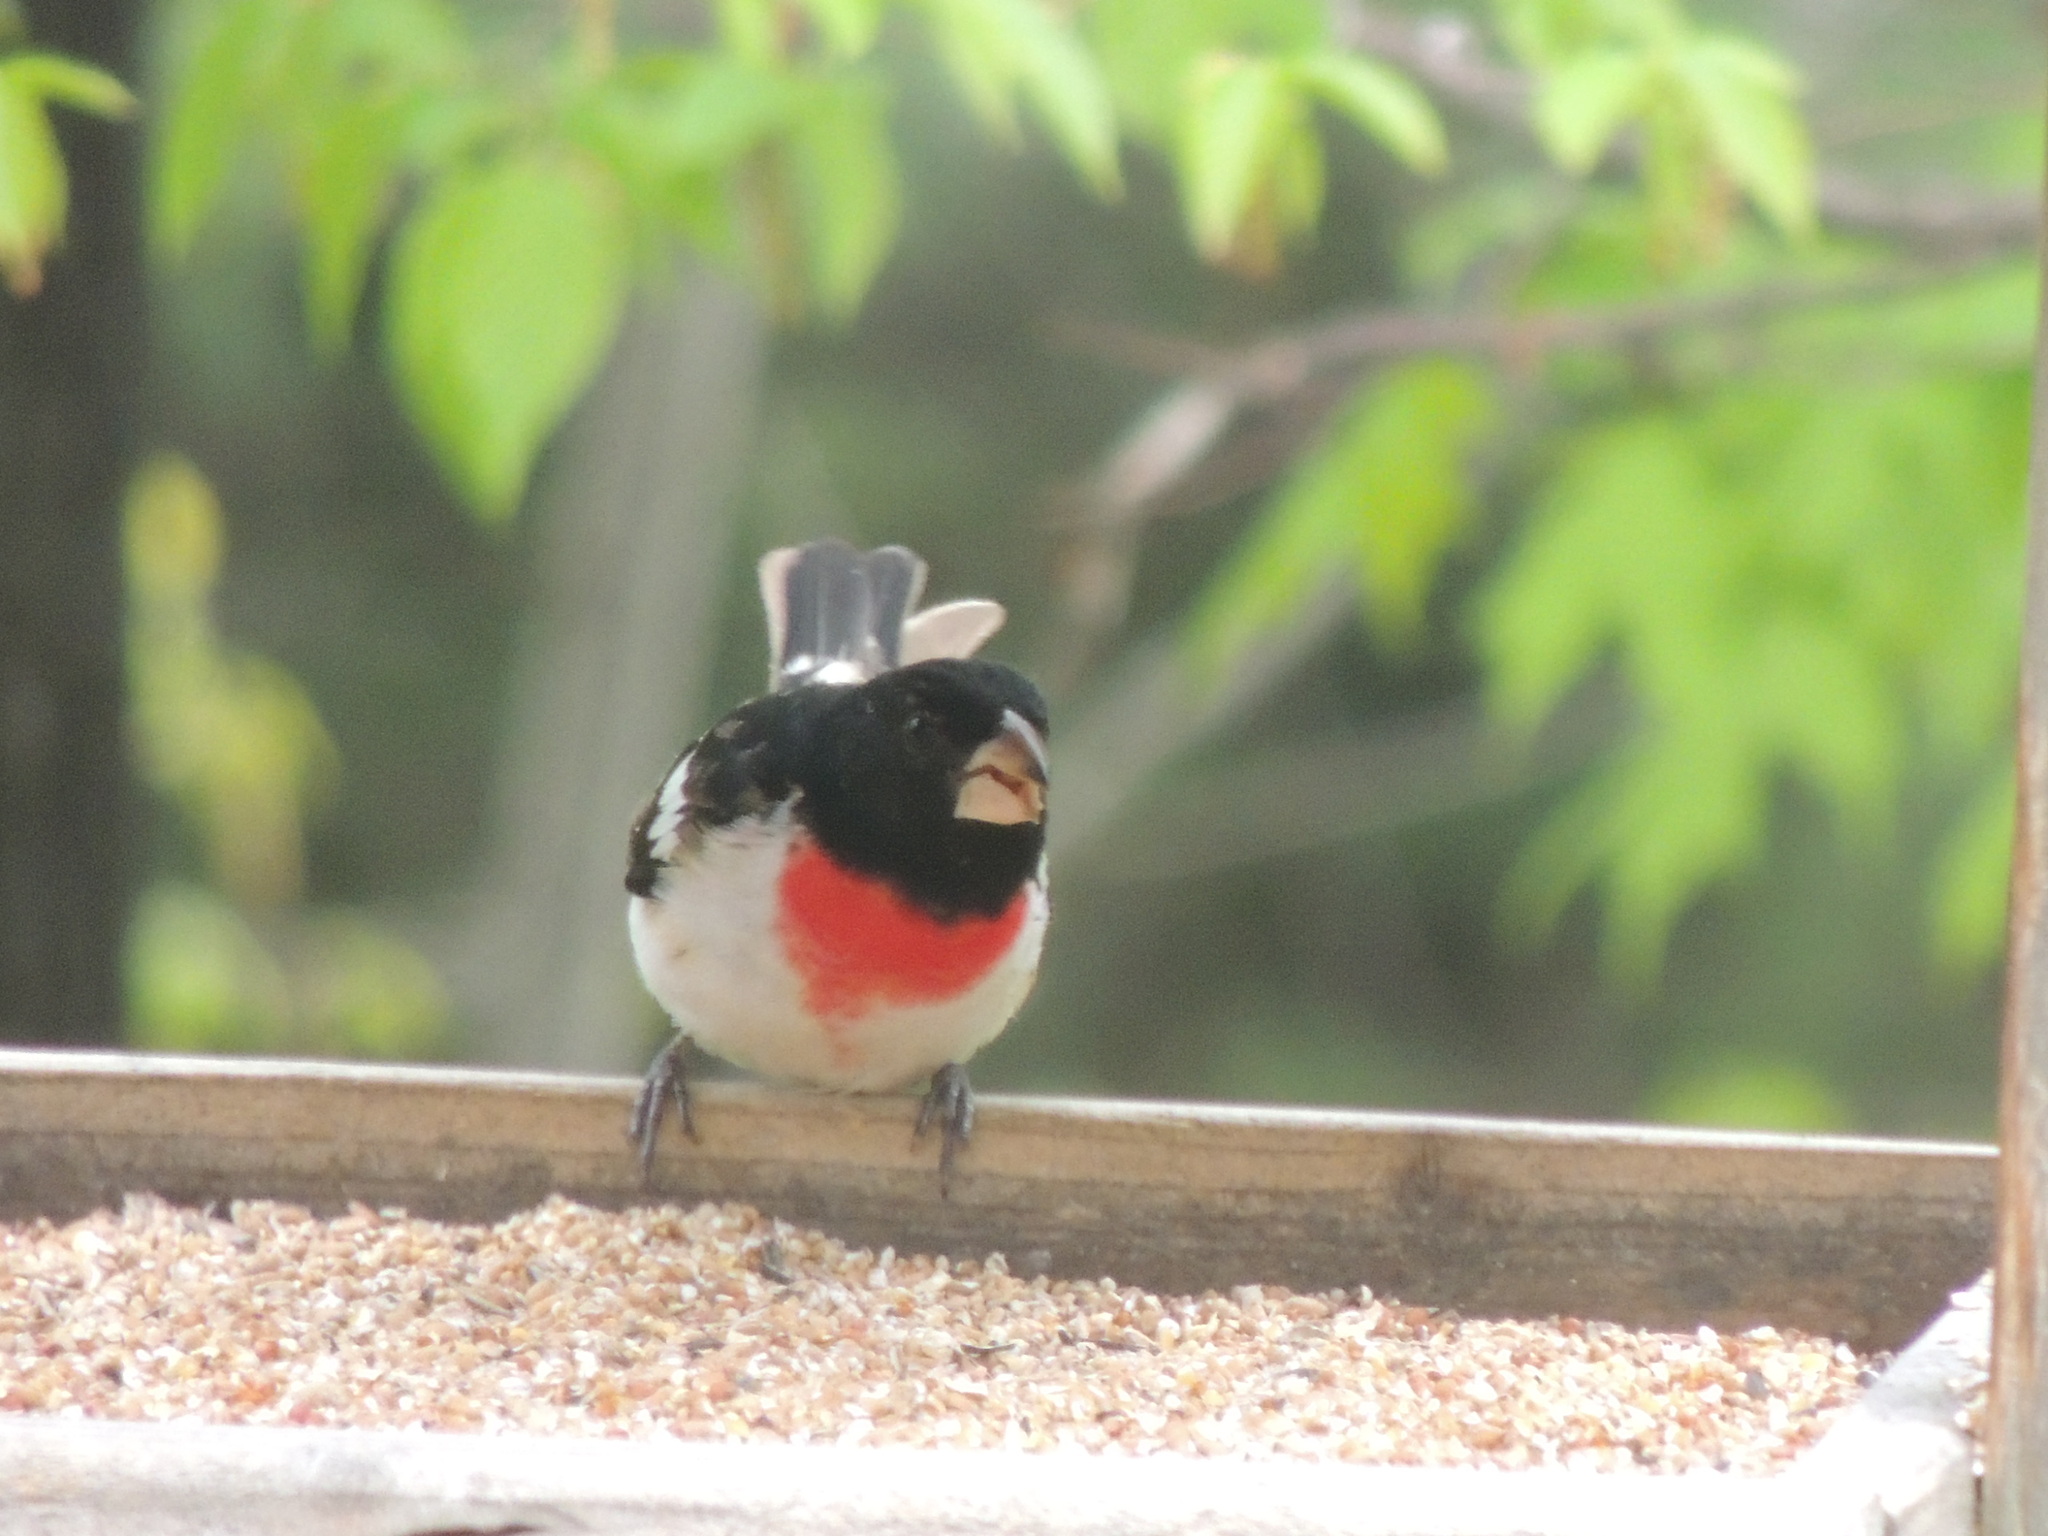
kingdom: Animalia
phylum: Chordata
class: Aves
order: Passeriformes
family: Cardinalidae
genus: Pheucticus
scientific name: Pheucticus ludovicianus
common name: Rose-breasted grosbeak
